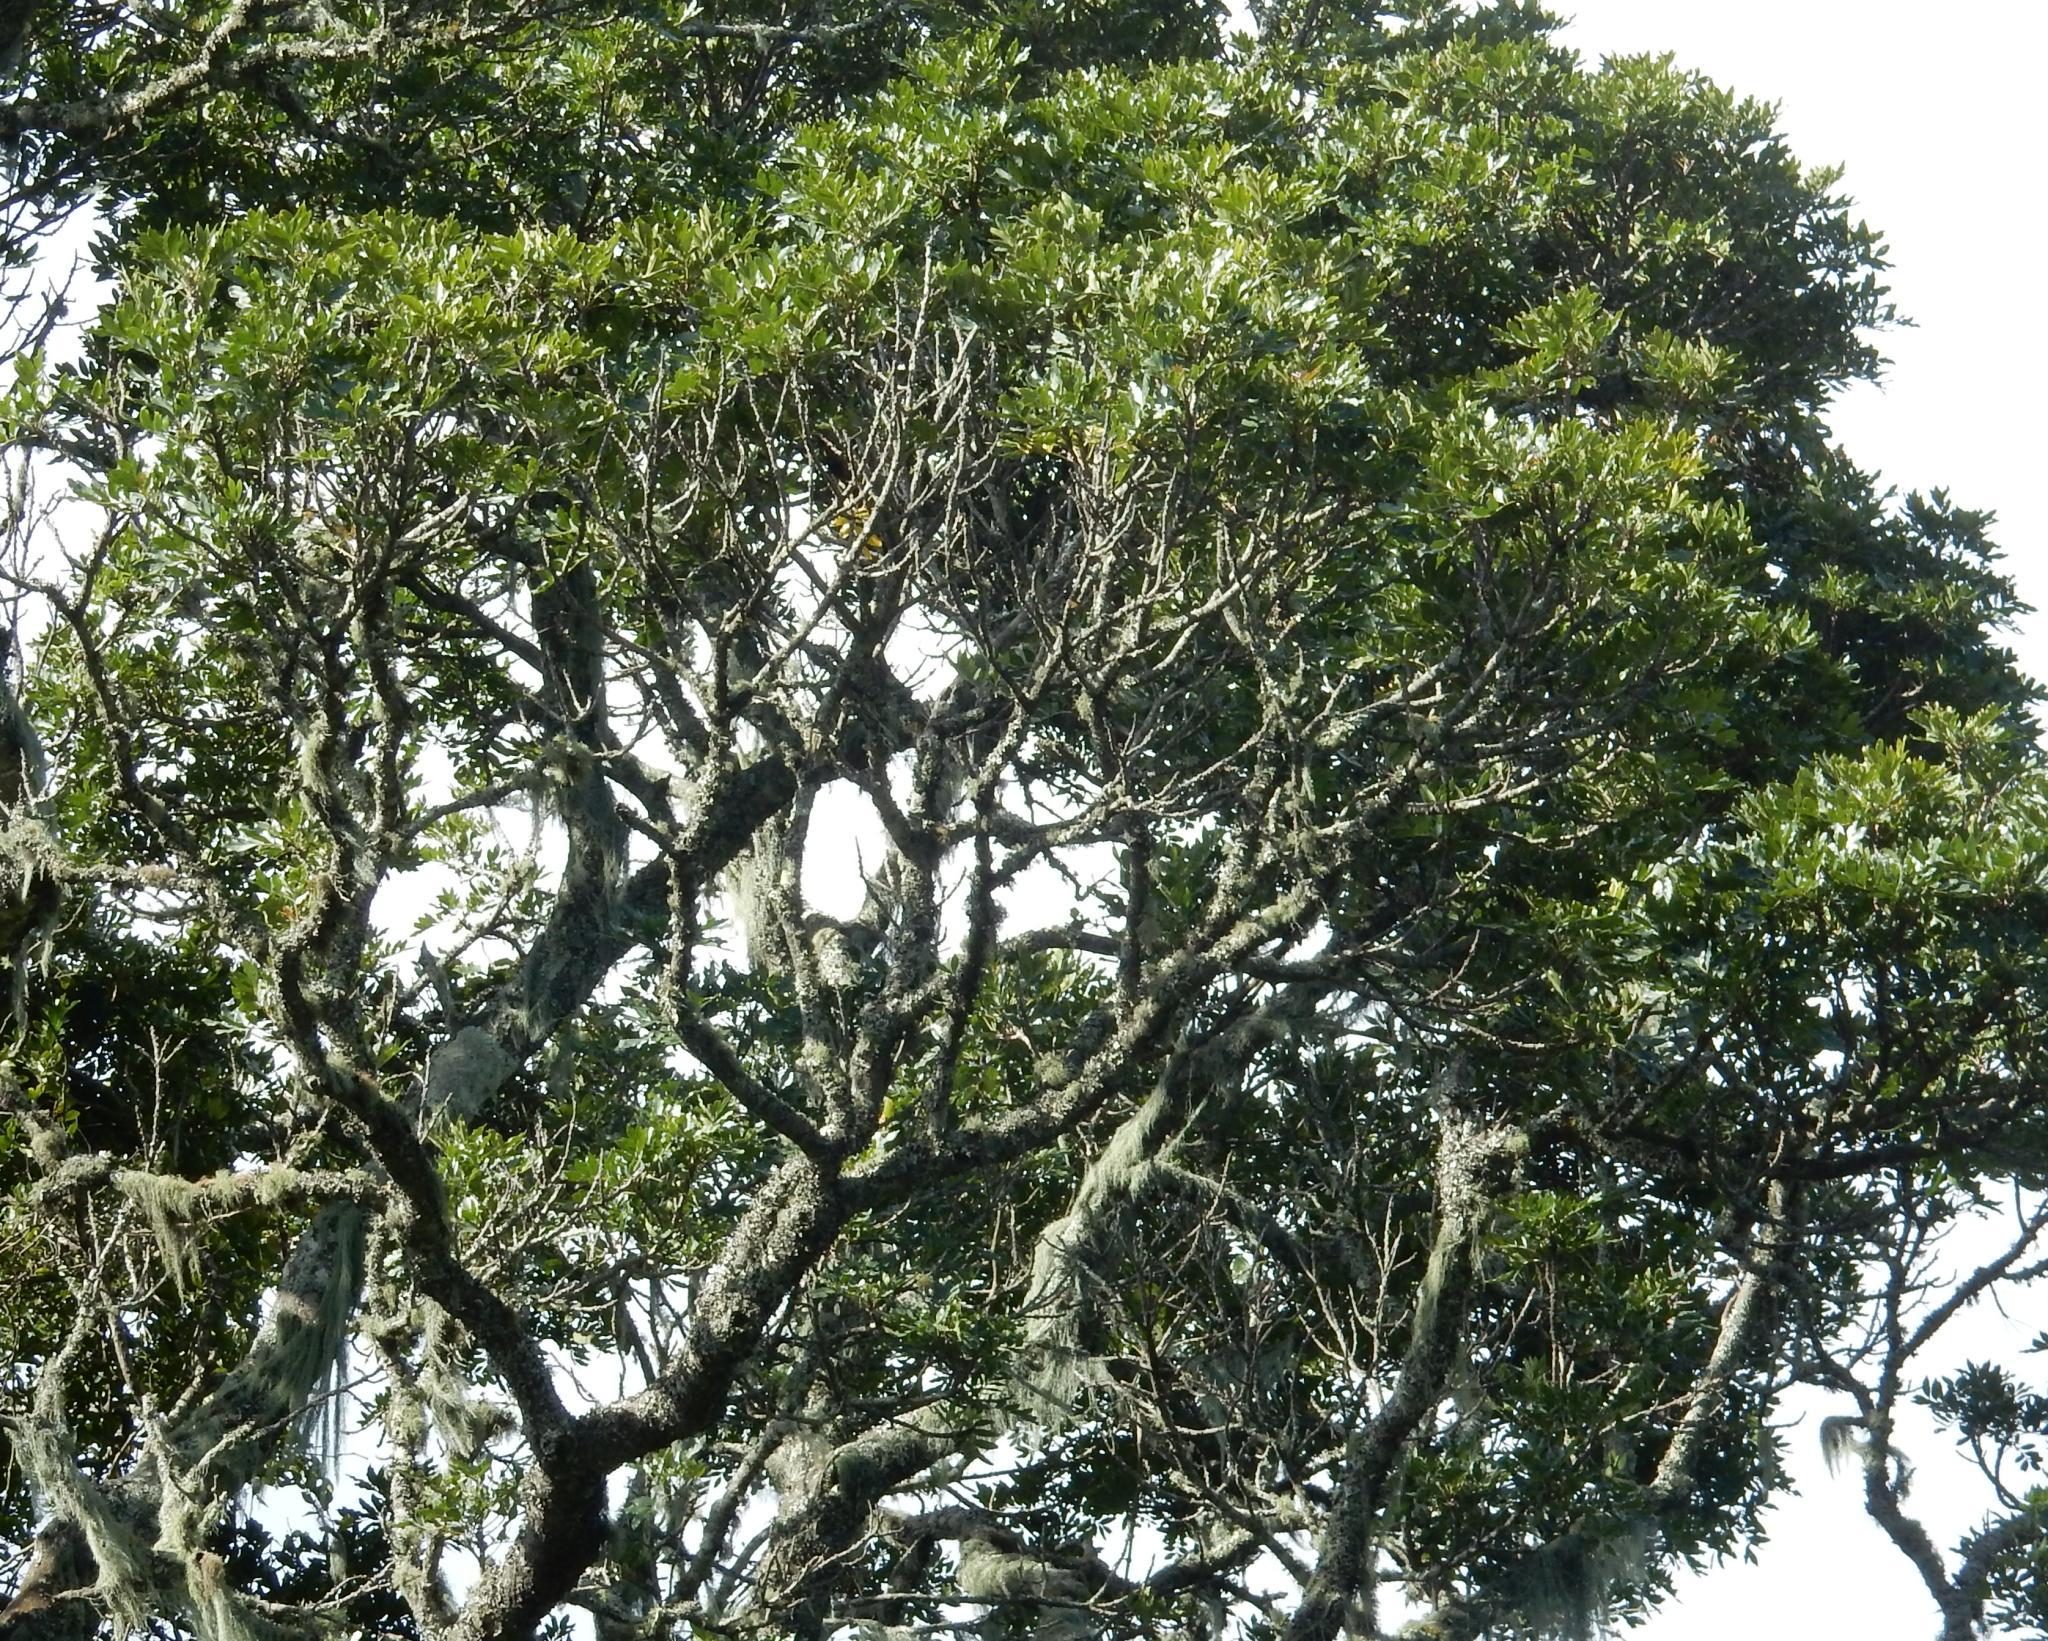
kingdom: Plantae
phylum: Tracheophyta
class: Magnoliopsida
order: Sapindales
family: Meliaceae
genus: Ekebergia
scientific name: Ekebergia capensis
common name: Cape-ash
